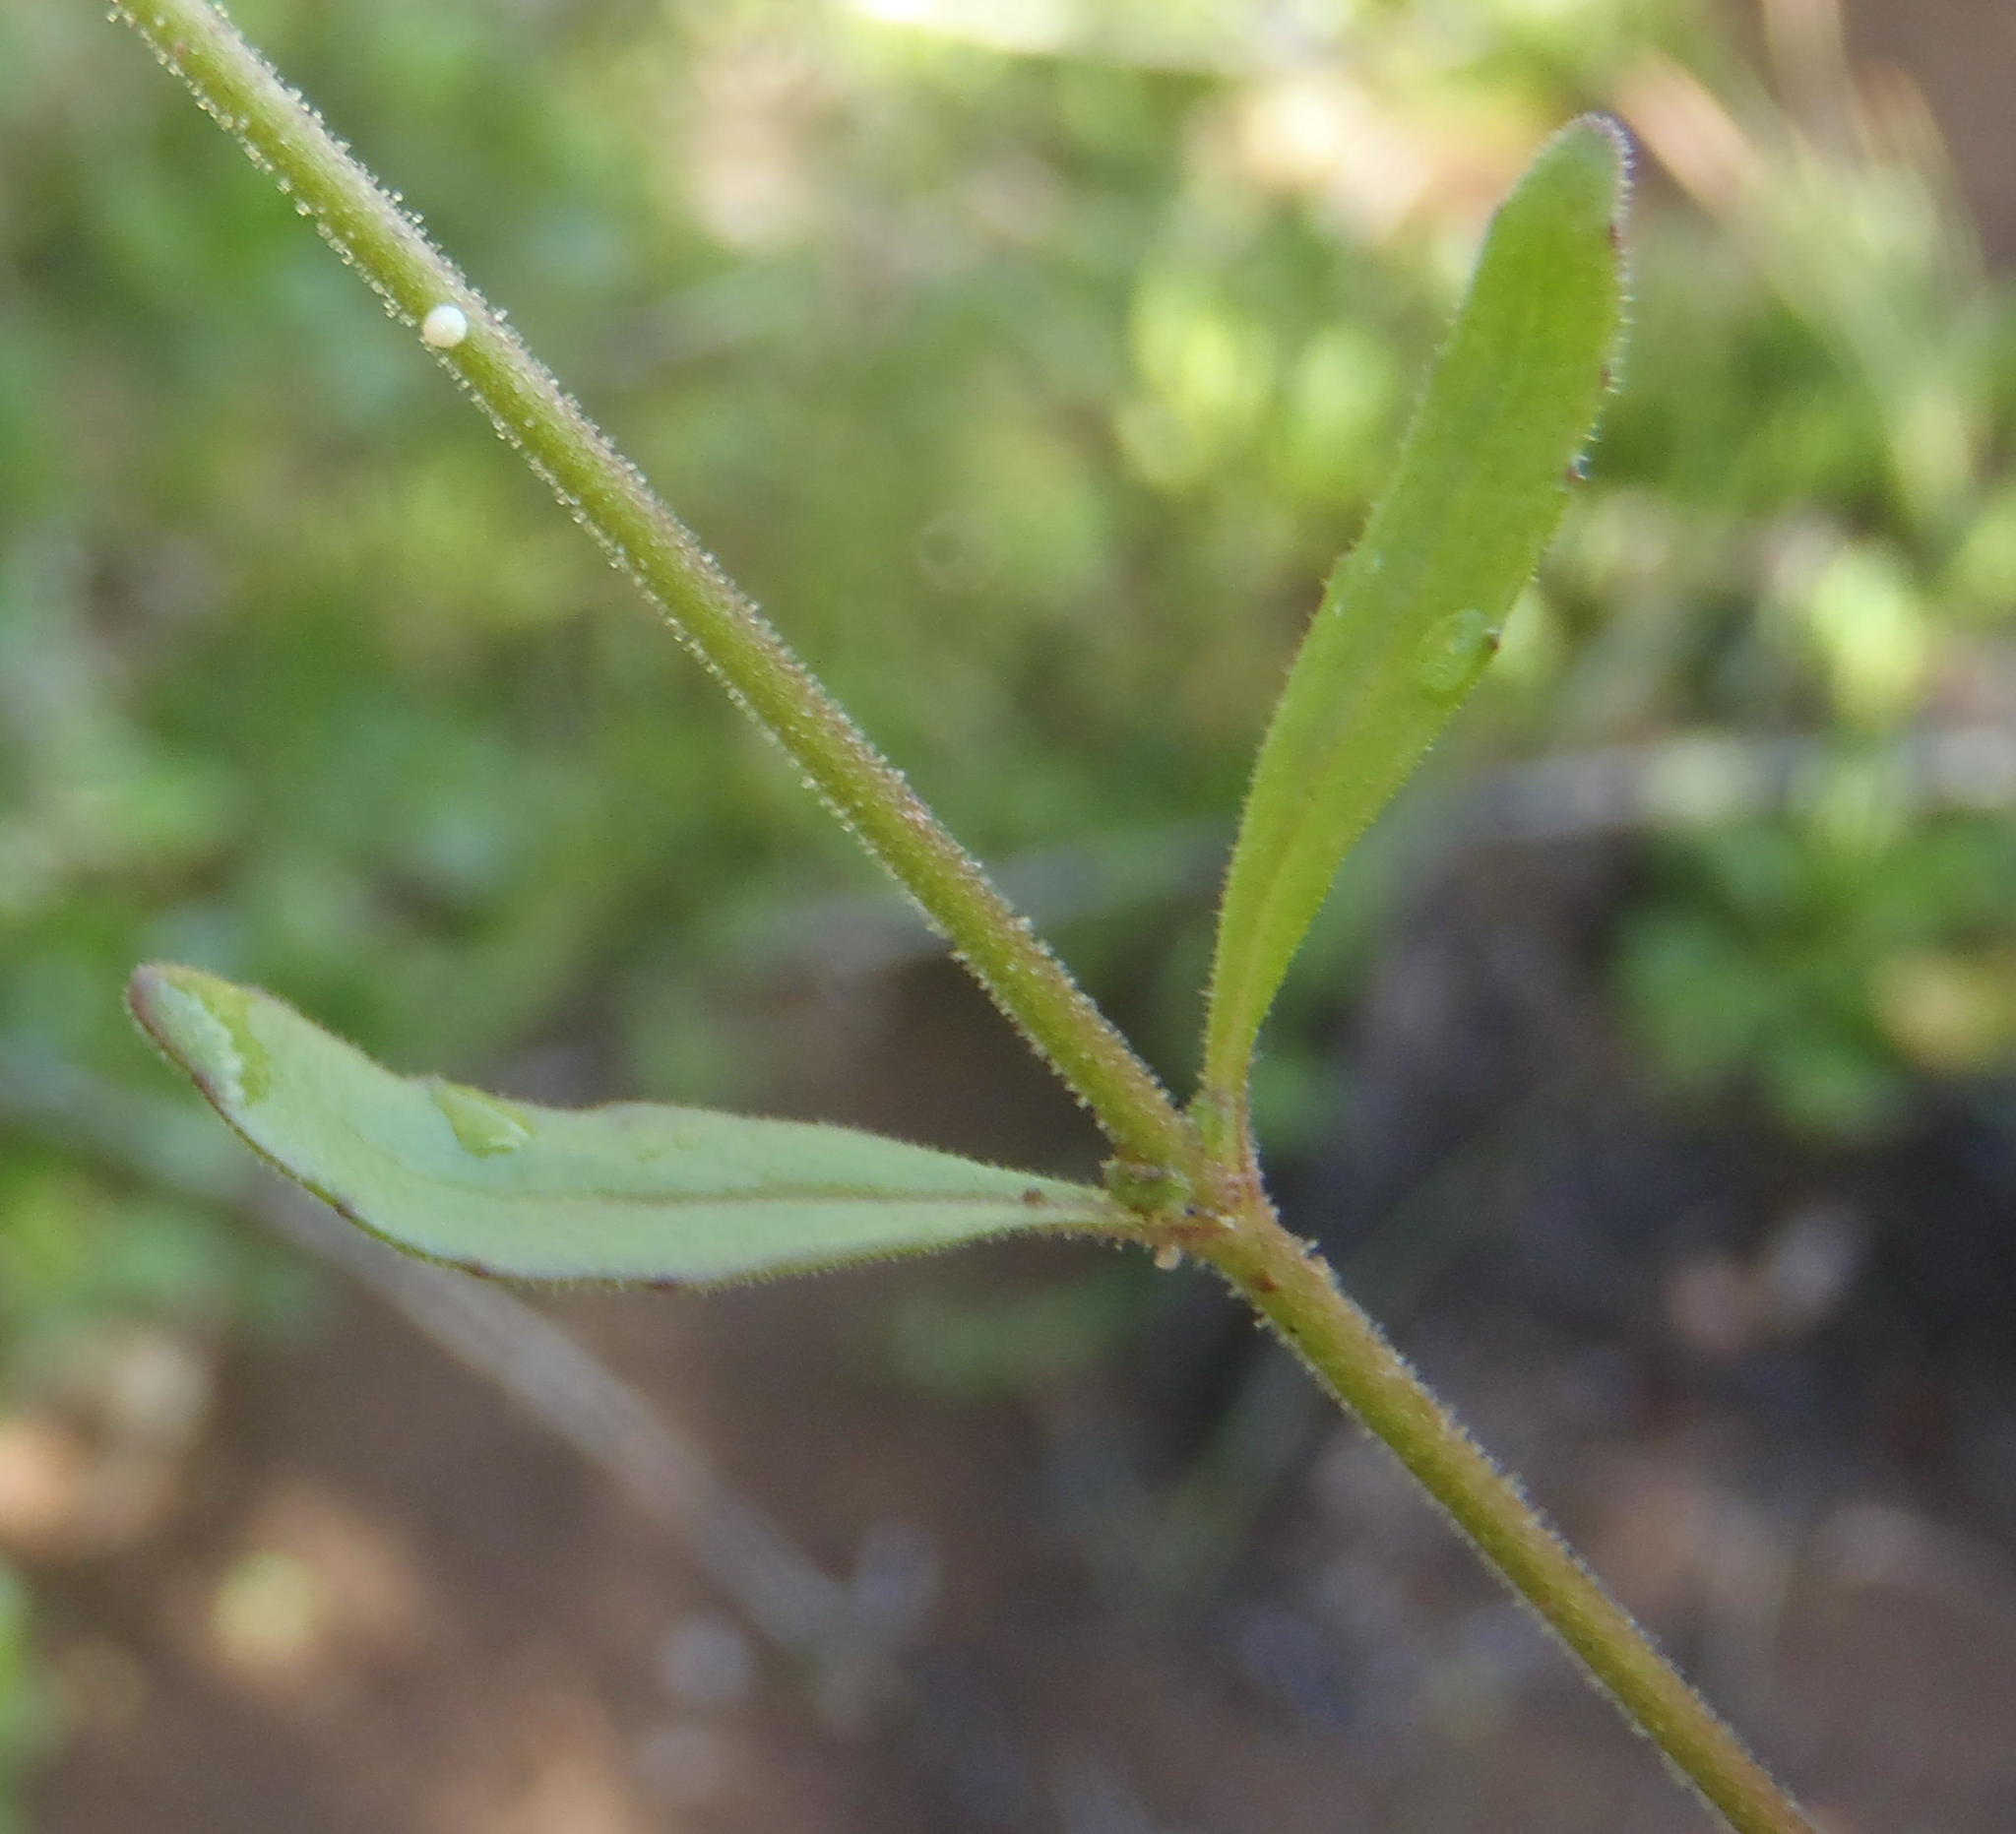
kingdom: Plantae
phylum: Tracheophyta
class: Magnoliopsida
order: Lamiales
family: Scrophulariaceae
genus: Manulea
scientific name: Manulea cheiranthus
